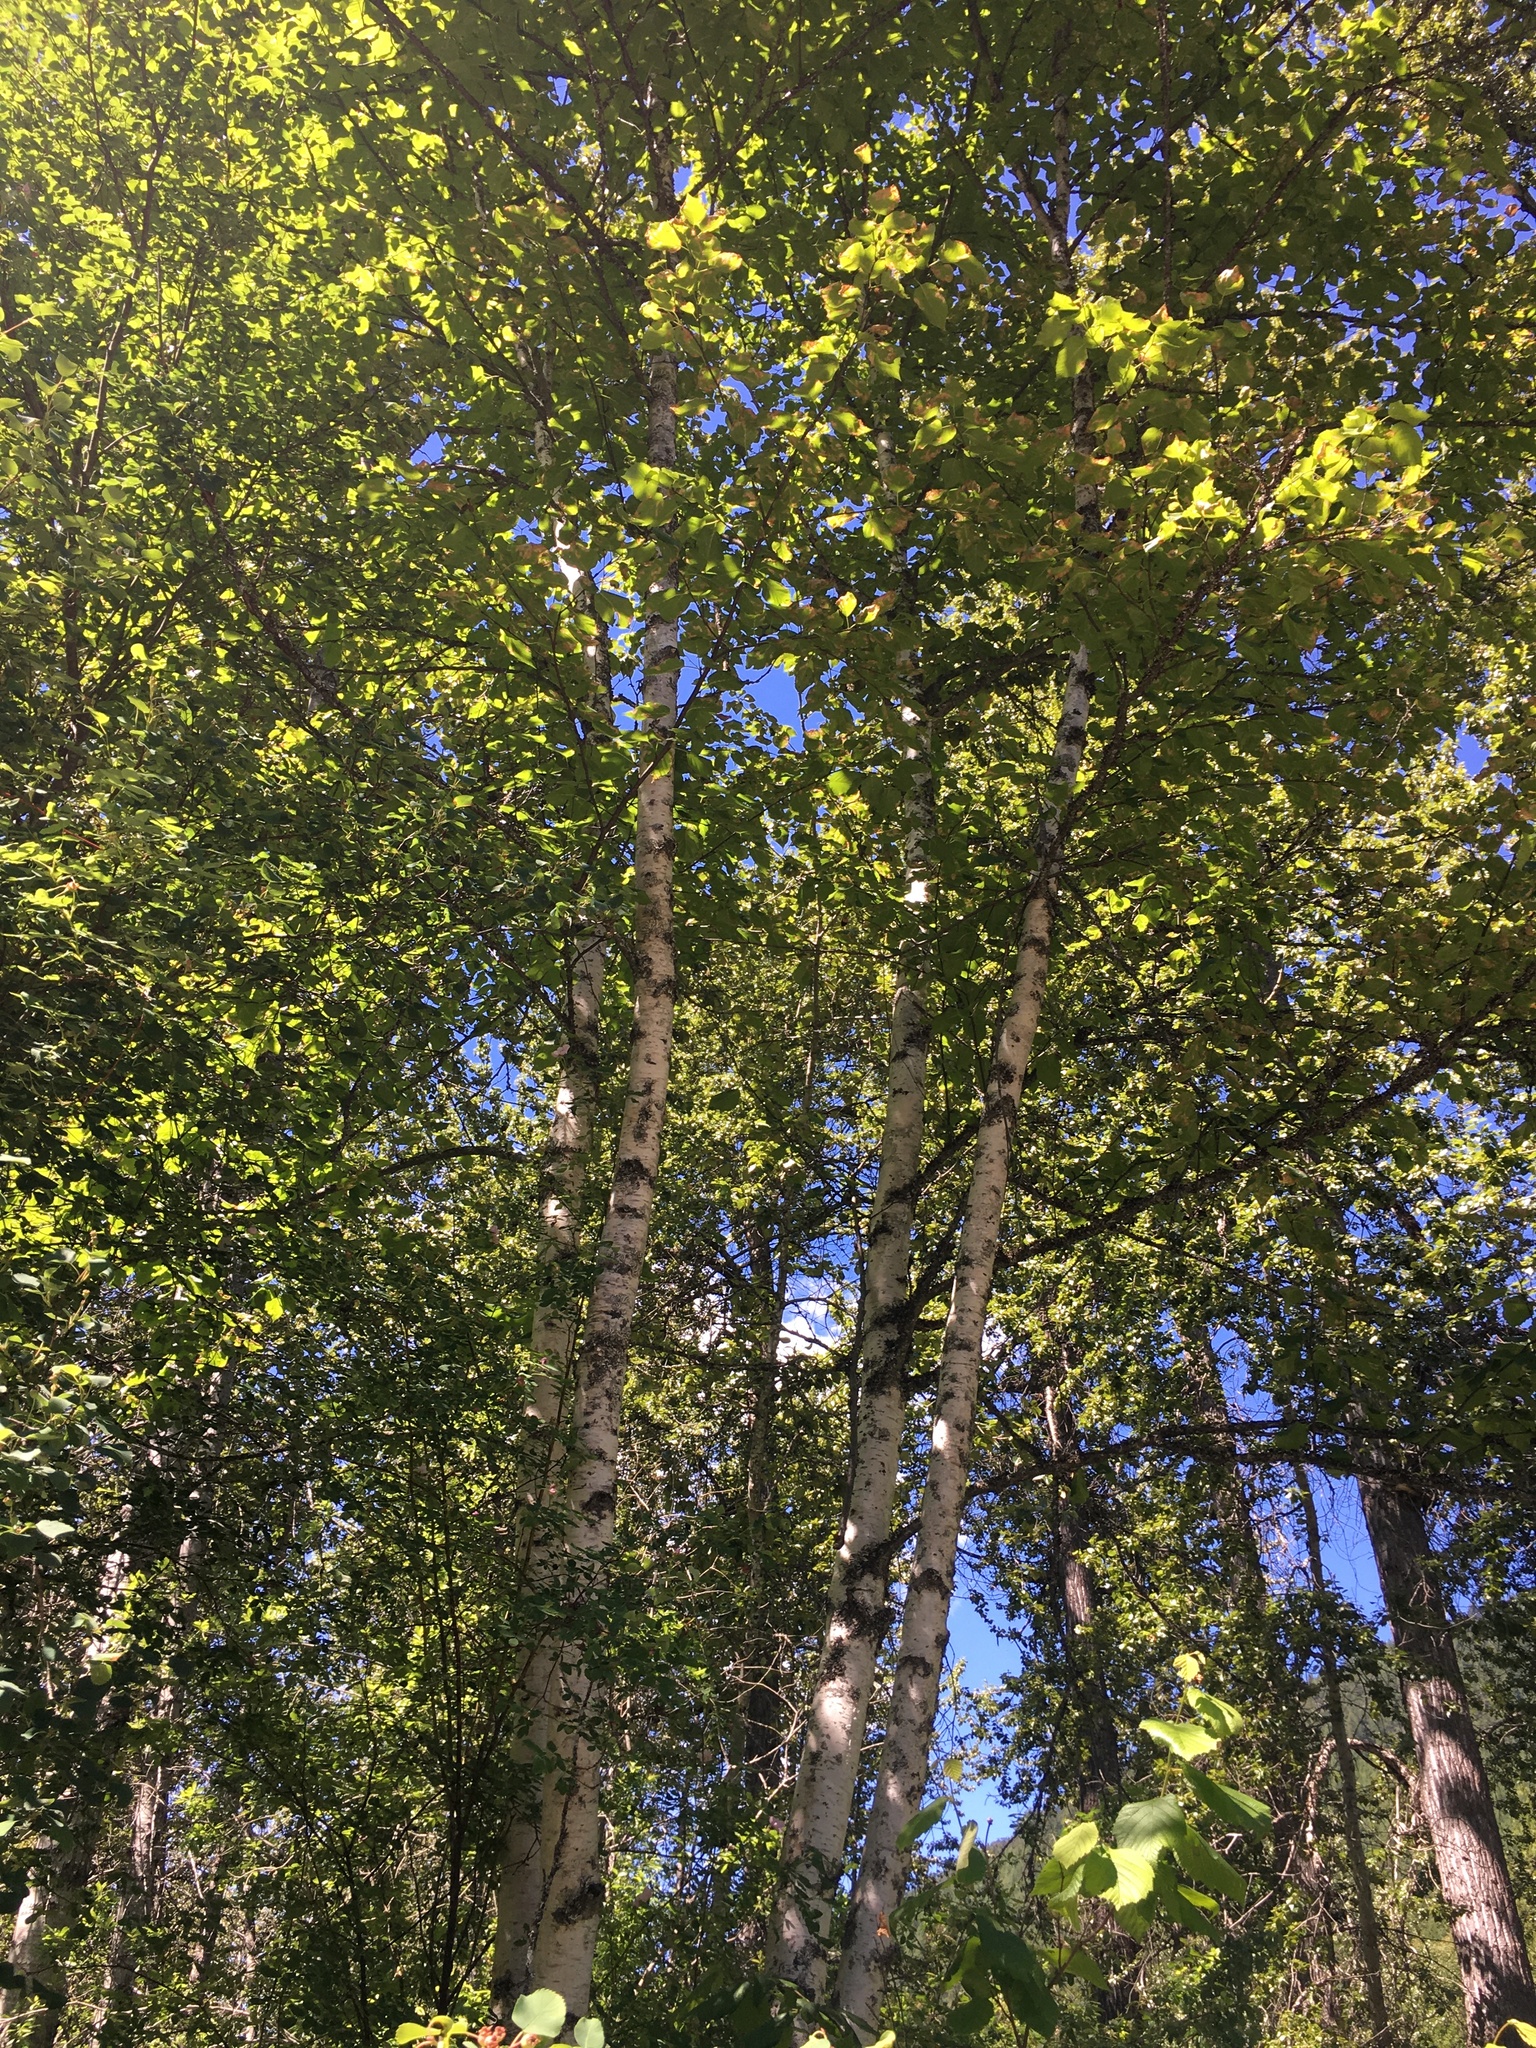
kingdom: Plantae
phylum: Tracheophyta
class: Magnoliopsida
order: Fagales
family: Betulaceae
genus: Betula
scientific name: Betula papyrifera
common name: Paper birch
